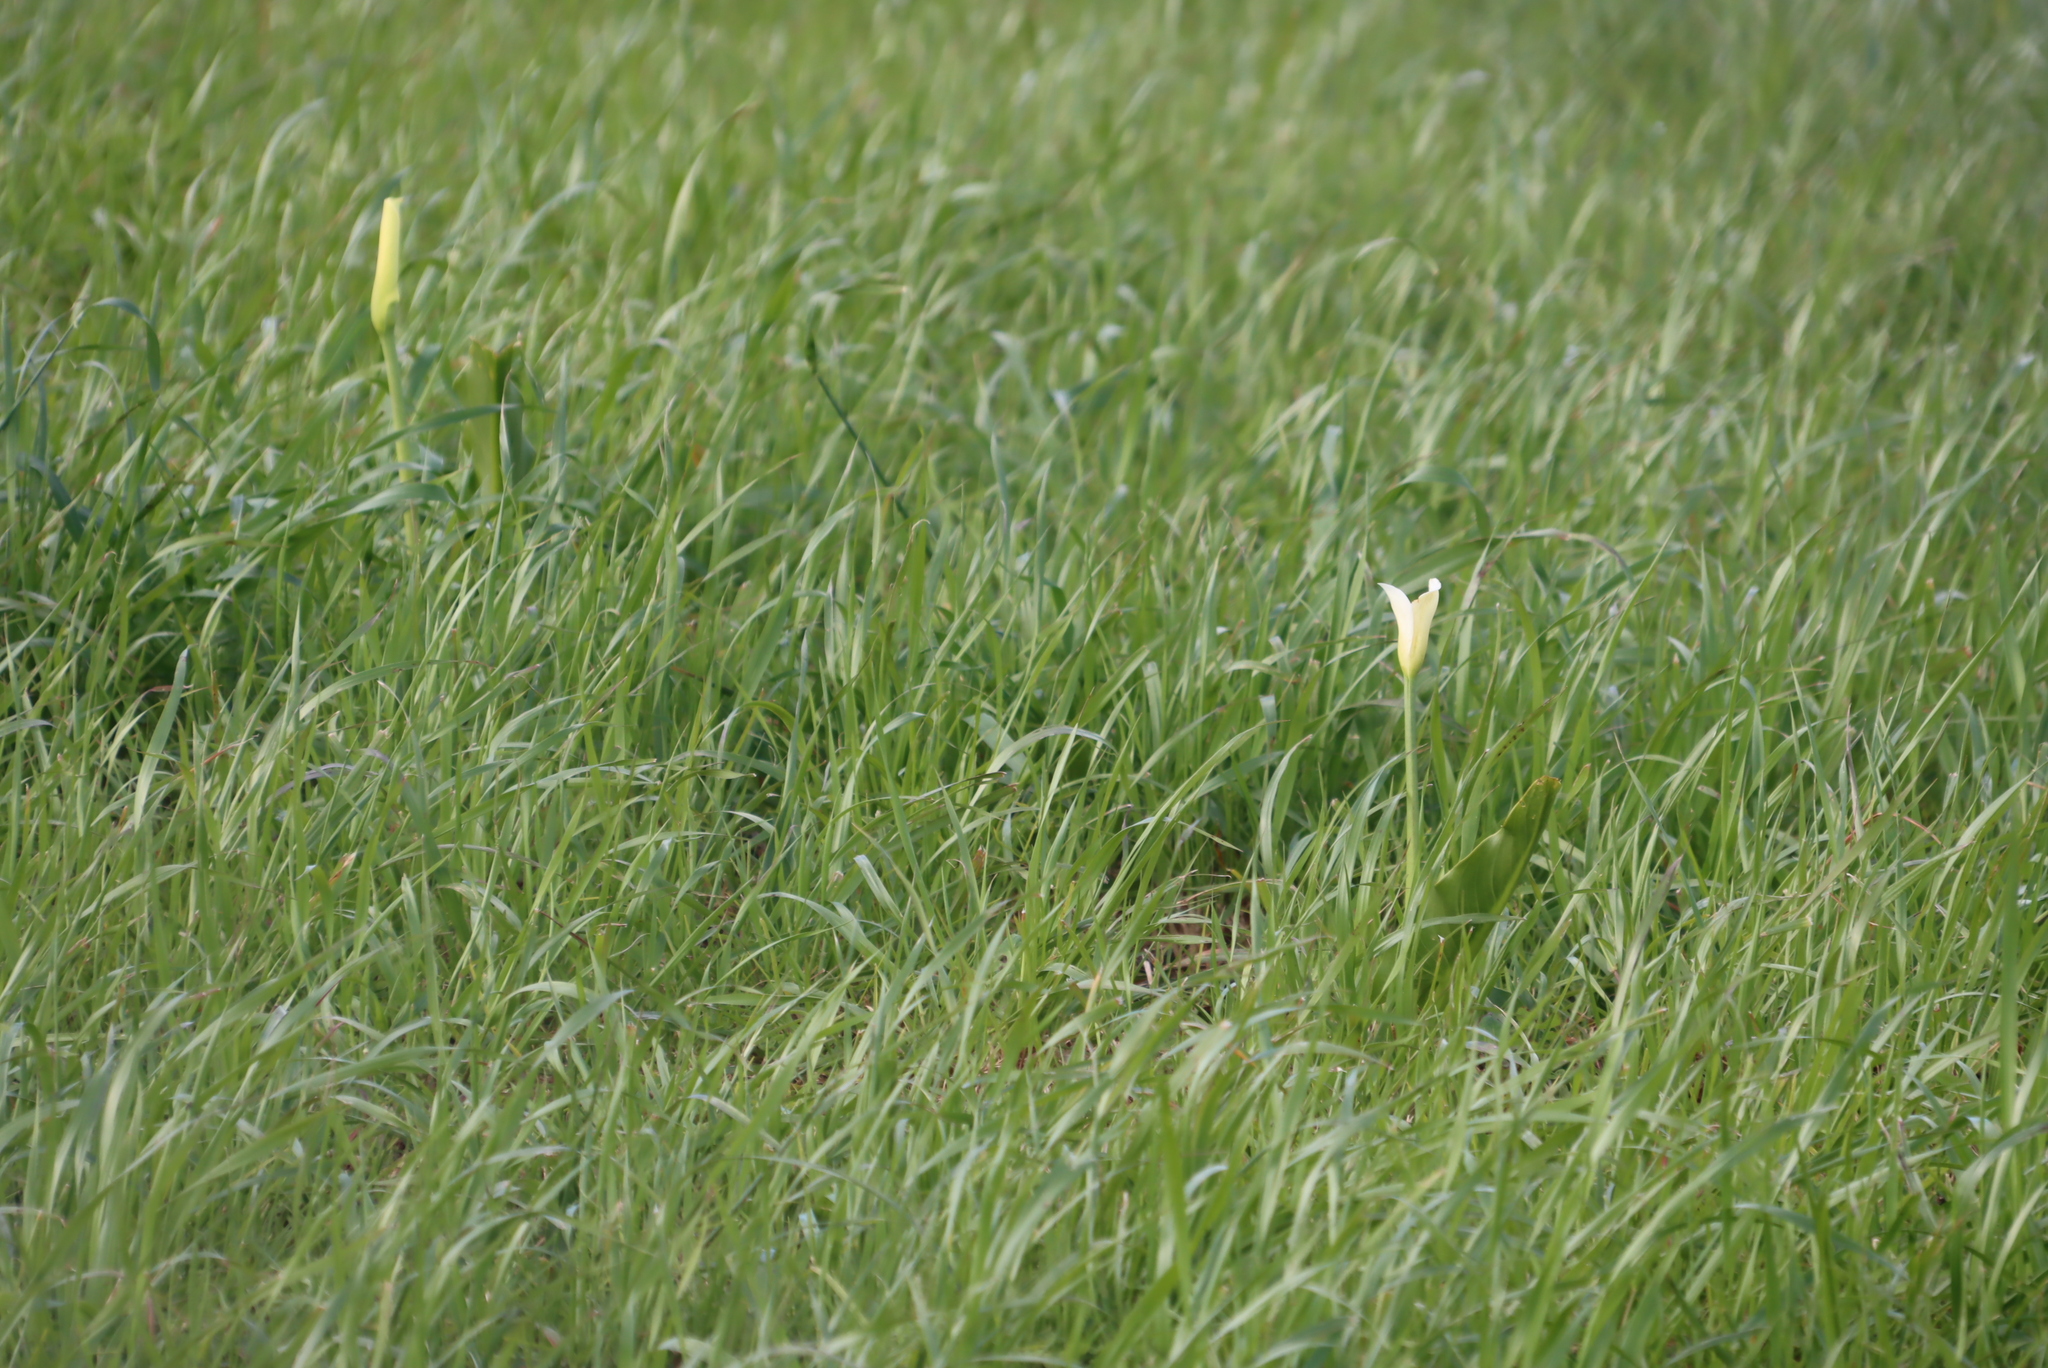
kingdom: Plantae
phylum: Tracheophyta
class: Liliopsida
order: Alismatales
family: Araceae
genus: Zantedeschia
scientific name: Zantedeschia aethiopica
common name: Altar-lily
